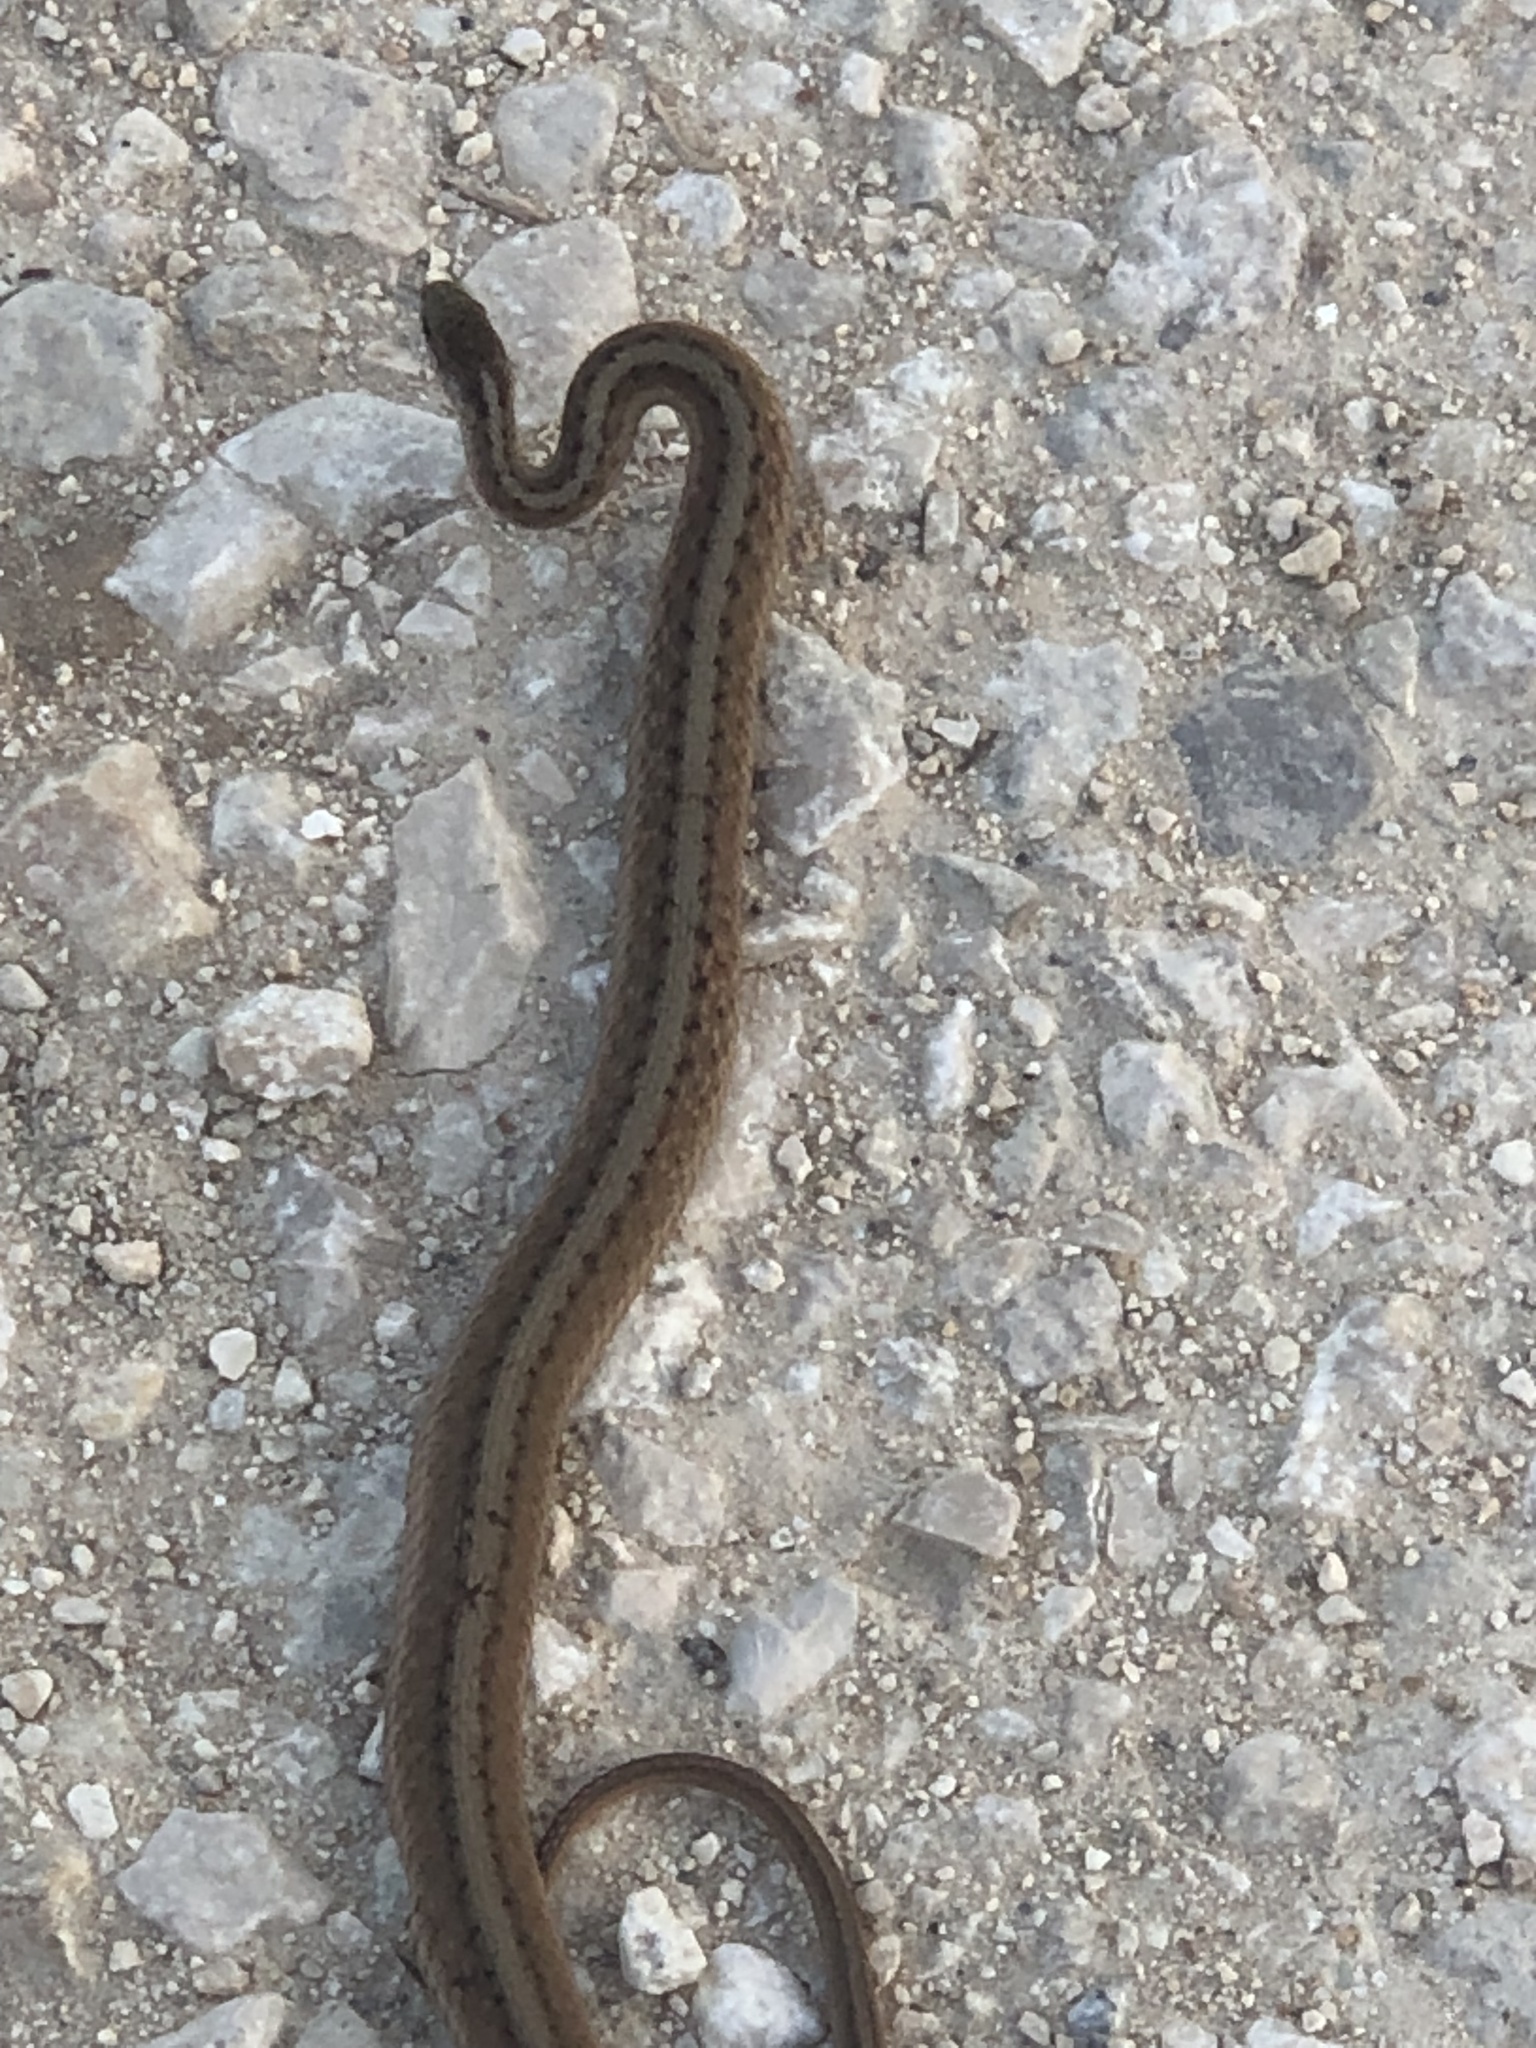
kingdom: Animalia
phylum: Chordata
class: Squamata
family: Colubridae
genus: Storeria
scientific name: Storeria dekayi
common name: (dekay’s) brown snake
